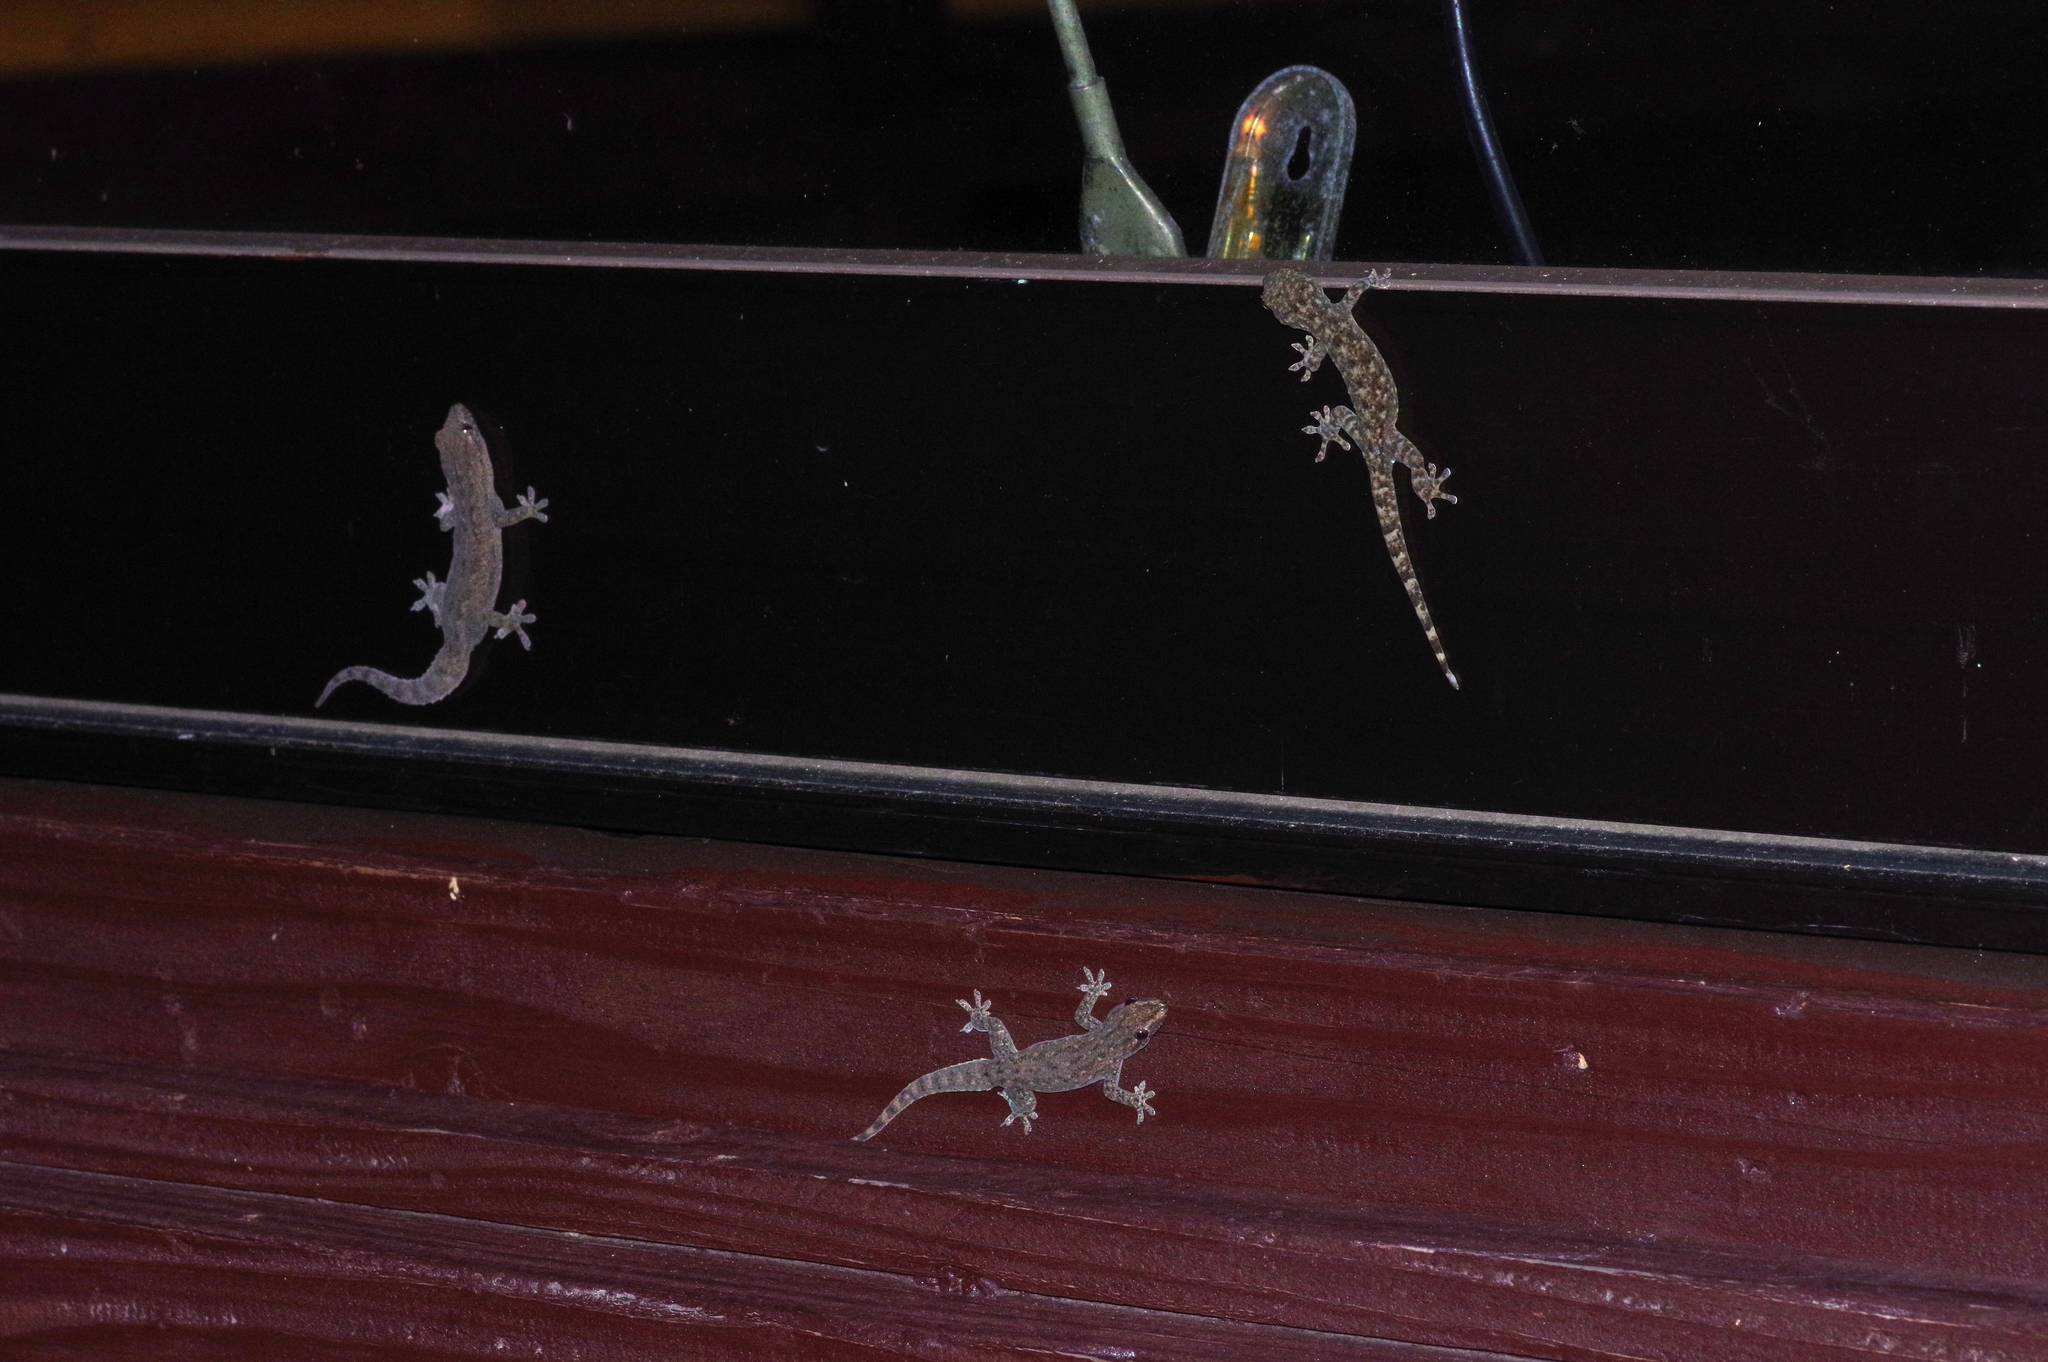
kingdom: Animalia
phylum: Chordata
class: Squamata
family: Gekkonidae
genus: Gekko
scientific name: Gekko hokouensis
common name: Kwangsi gecko
